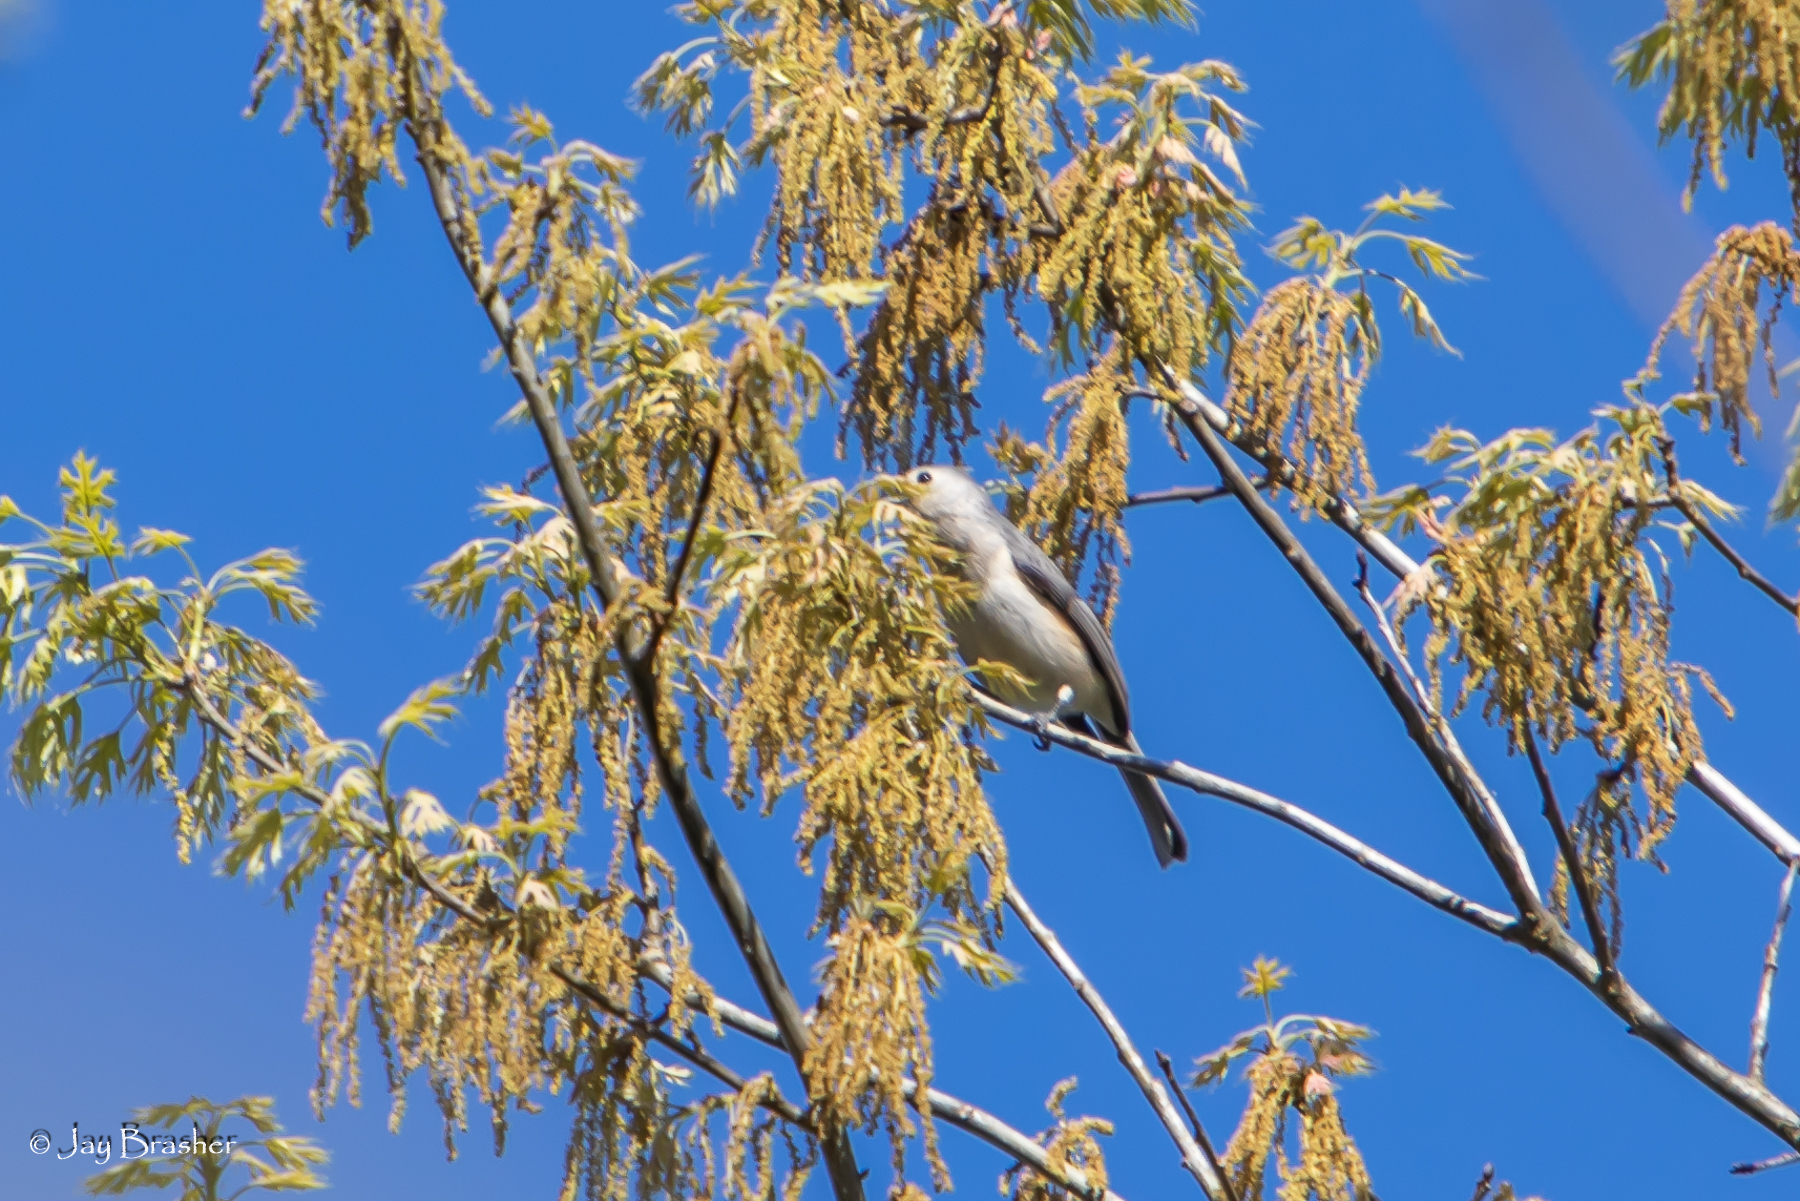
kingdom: Animalia
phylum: Chordata
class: Aves
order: Passeriformes
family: Paridae
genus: Baeolophus
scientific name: Baeolophus bicolor
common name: Tufted titmouse
